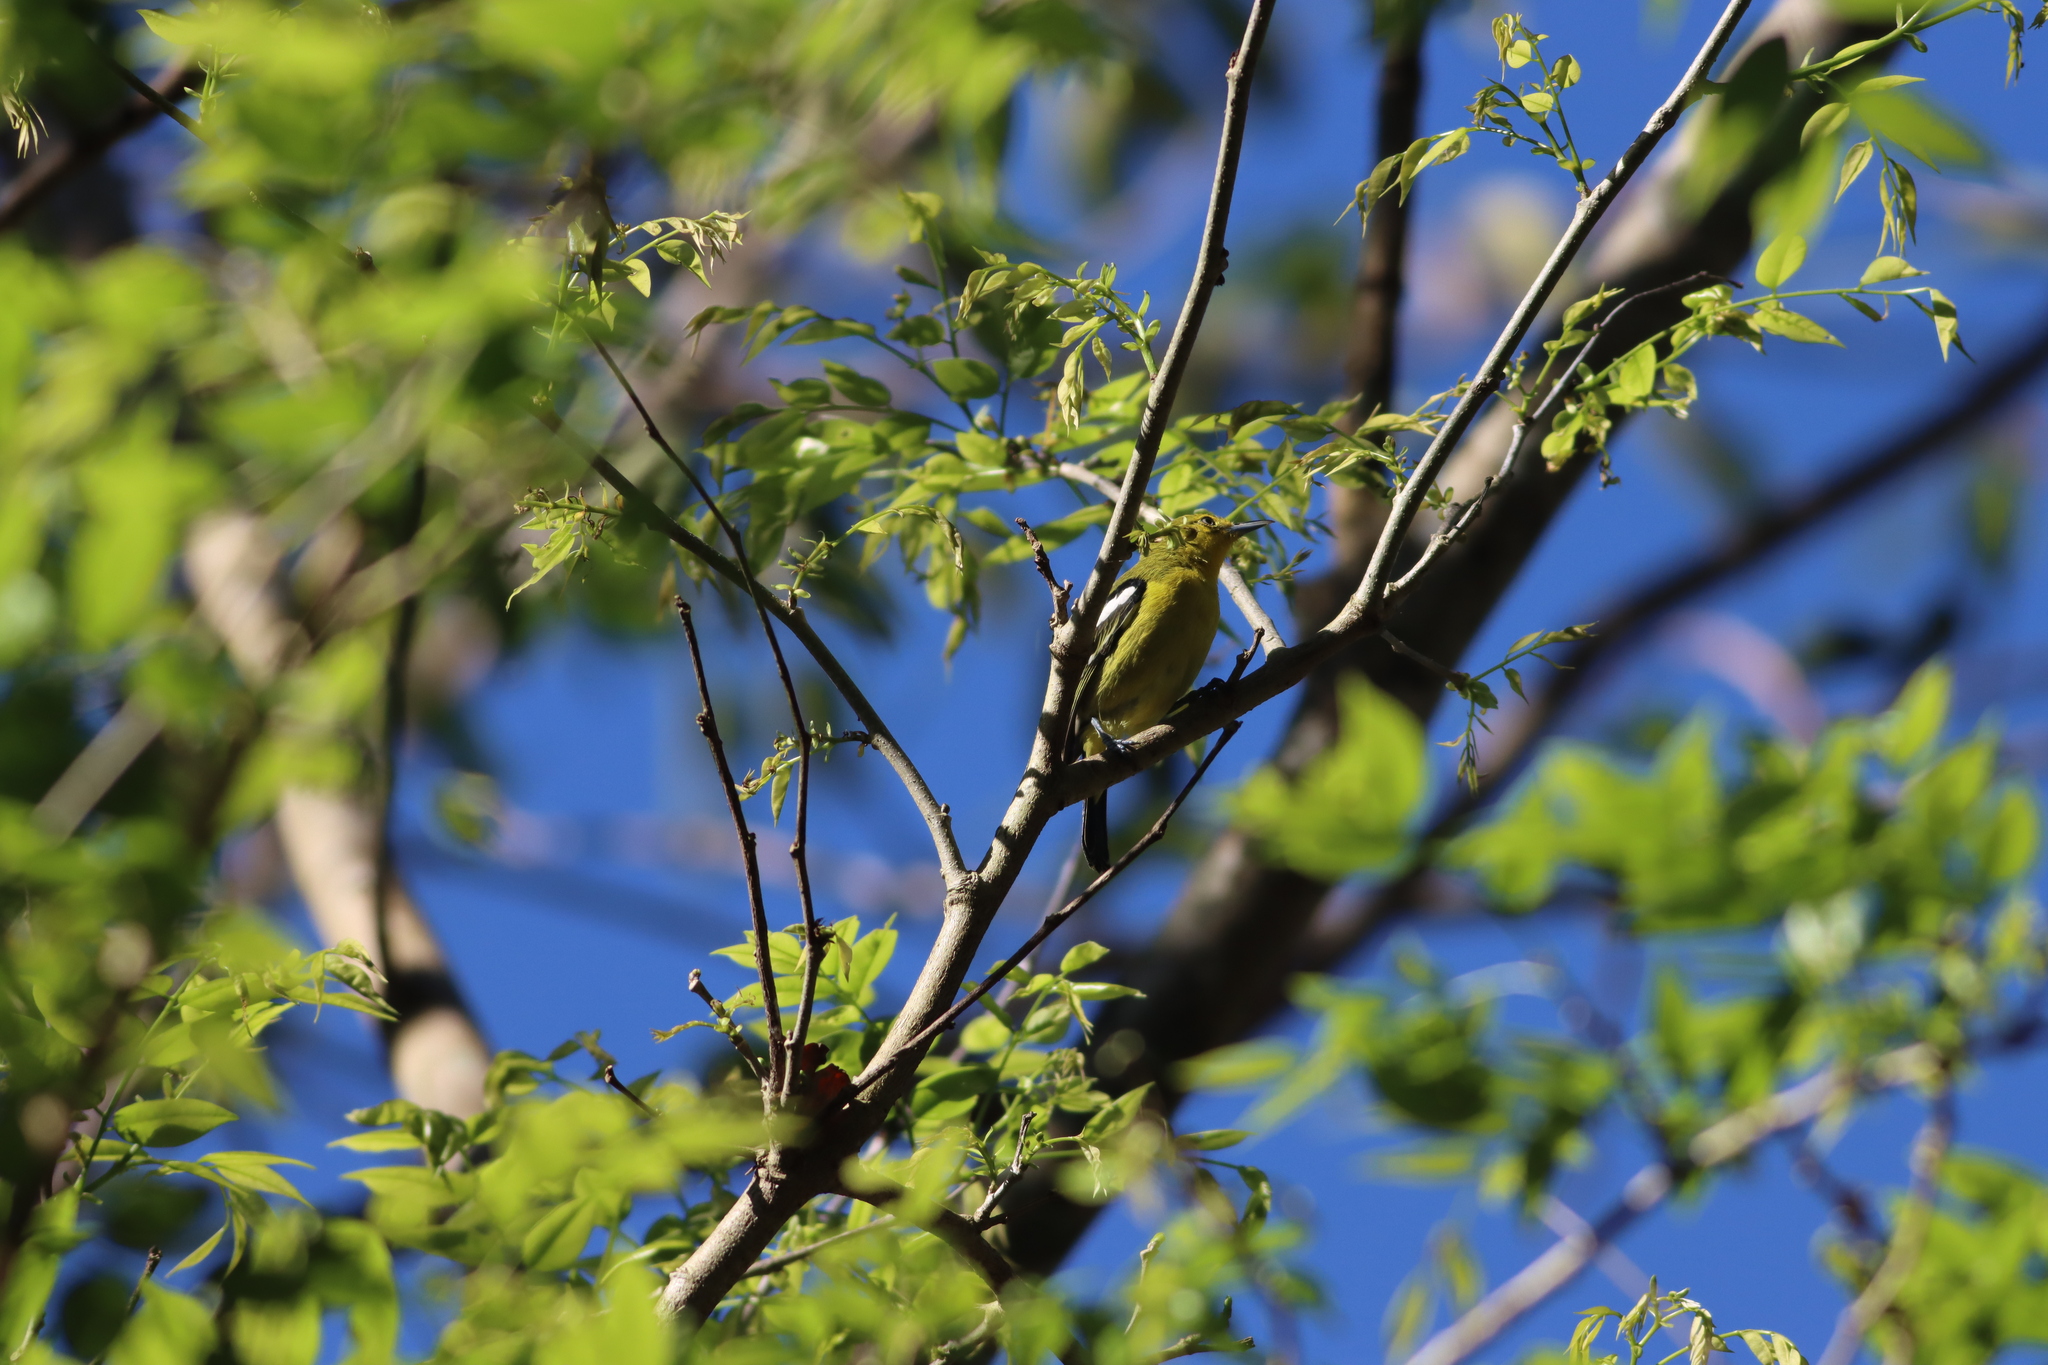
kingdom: Animalia
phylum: Chordata
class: Aves
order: Passeriformes
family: Aegithinidae
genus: Aegithina
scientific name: Aegithina tiphia
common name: Common iora
